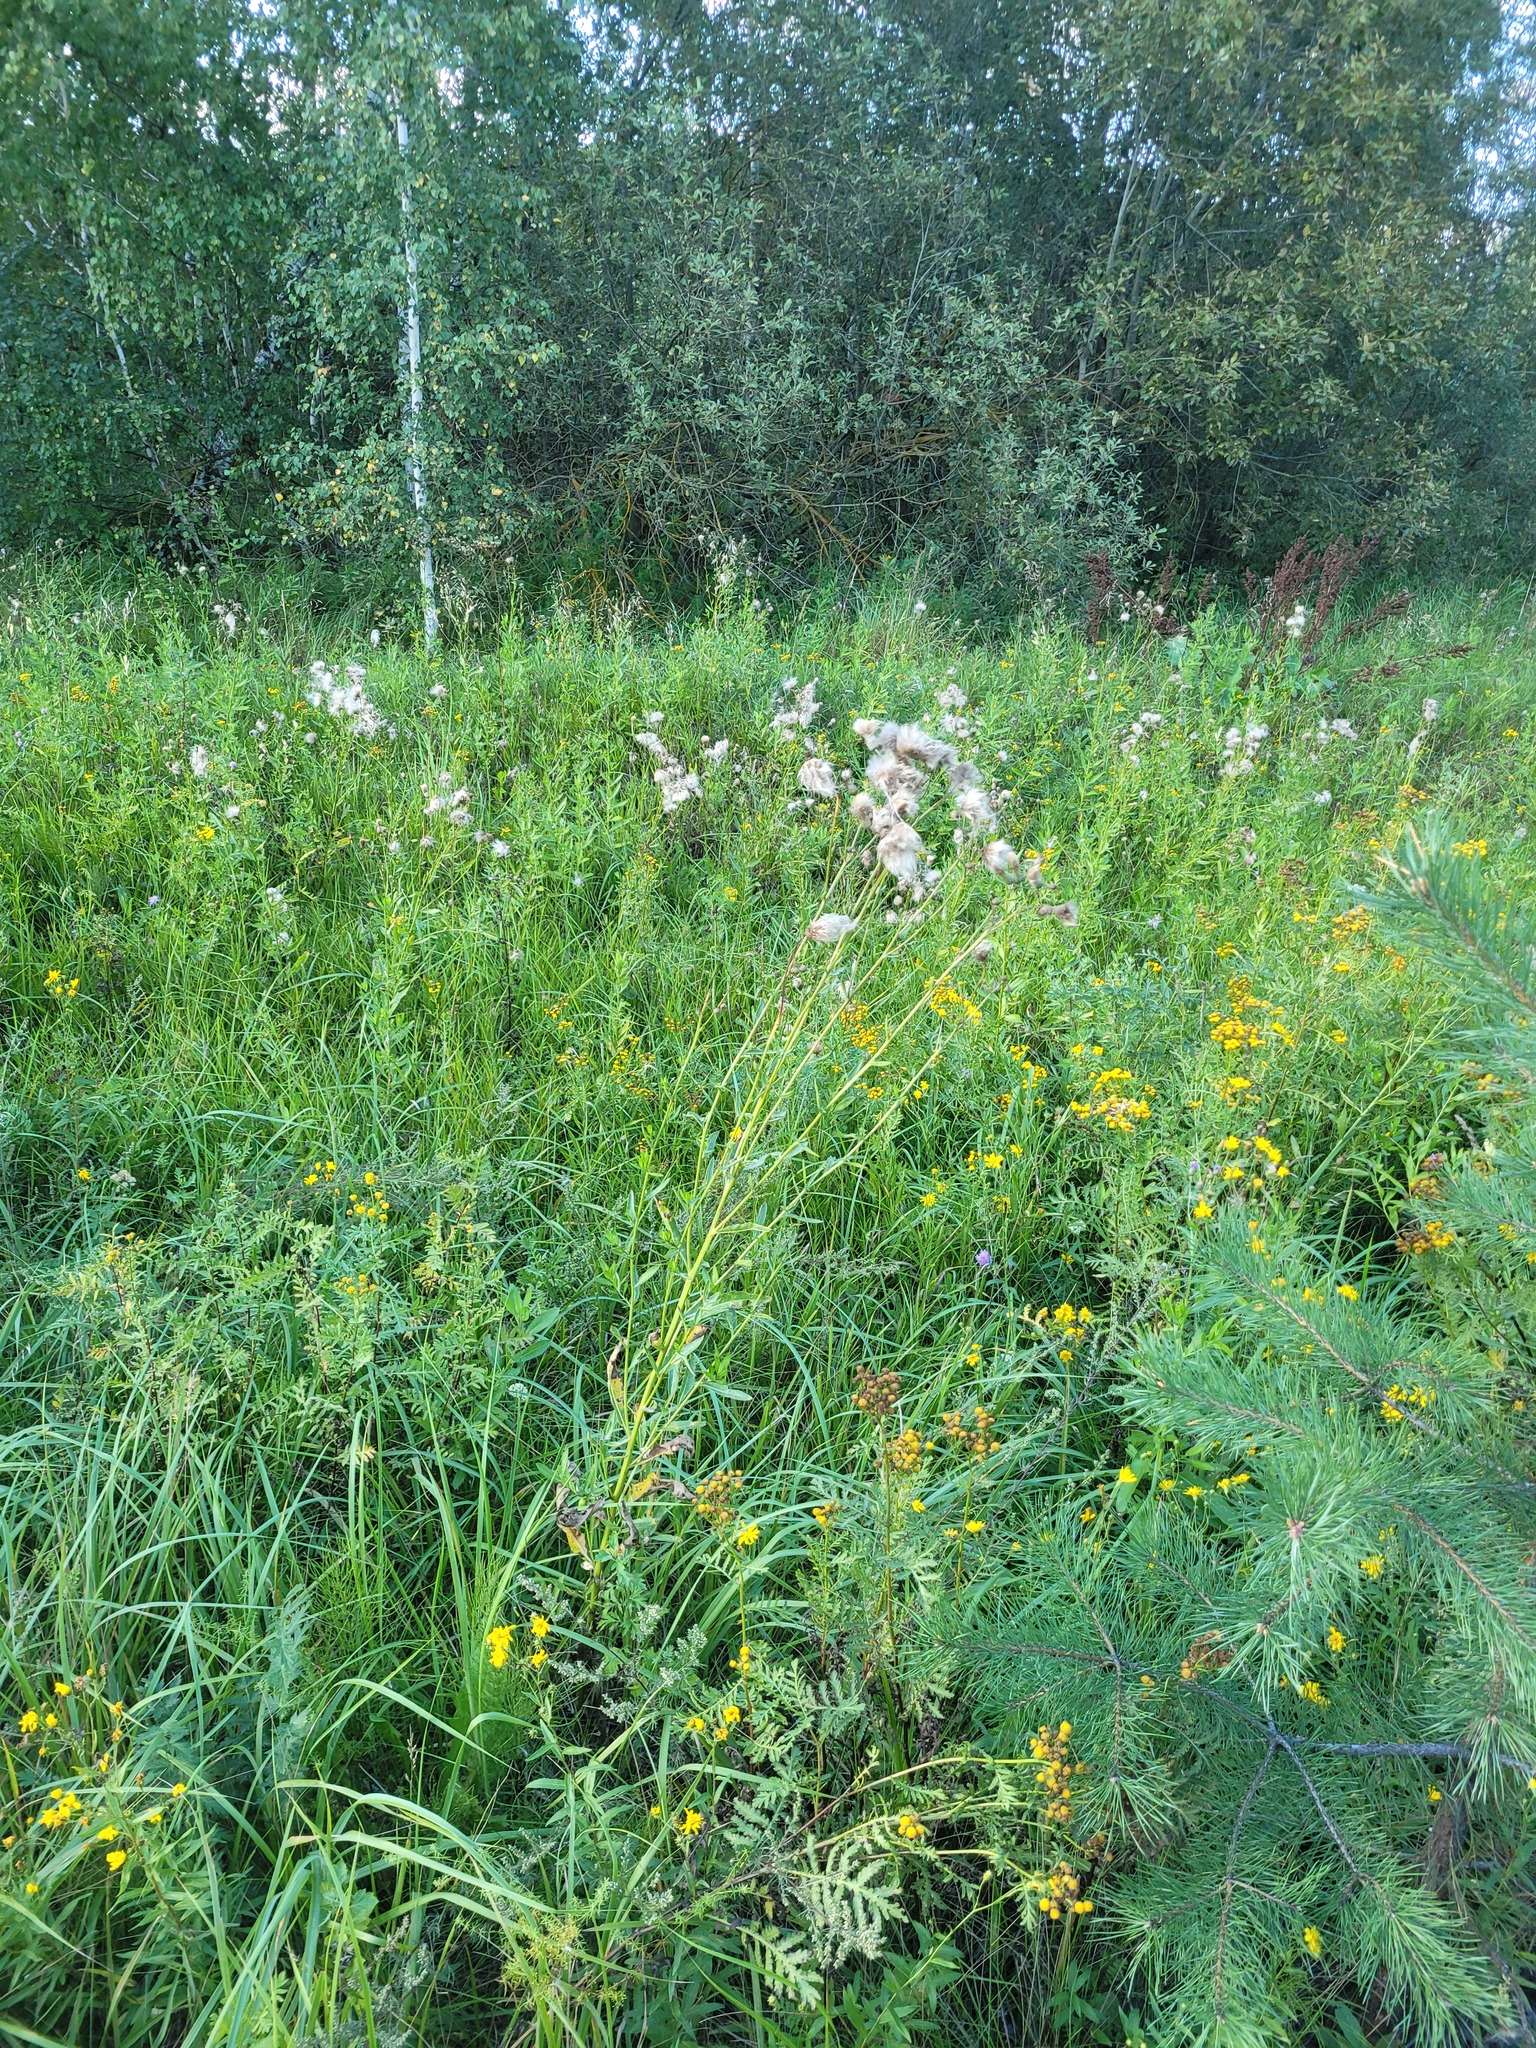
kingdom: Plantae
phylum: Tracheophyta
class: Magnoliopsida
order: Asterales
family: Asteraceae
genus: Cirsium
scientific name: Cirsium arvense
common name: Creeping thistle
